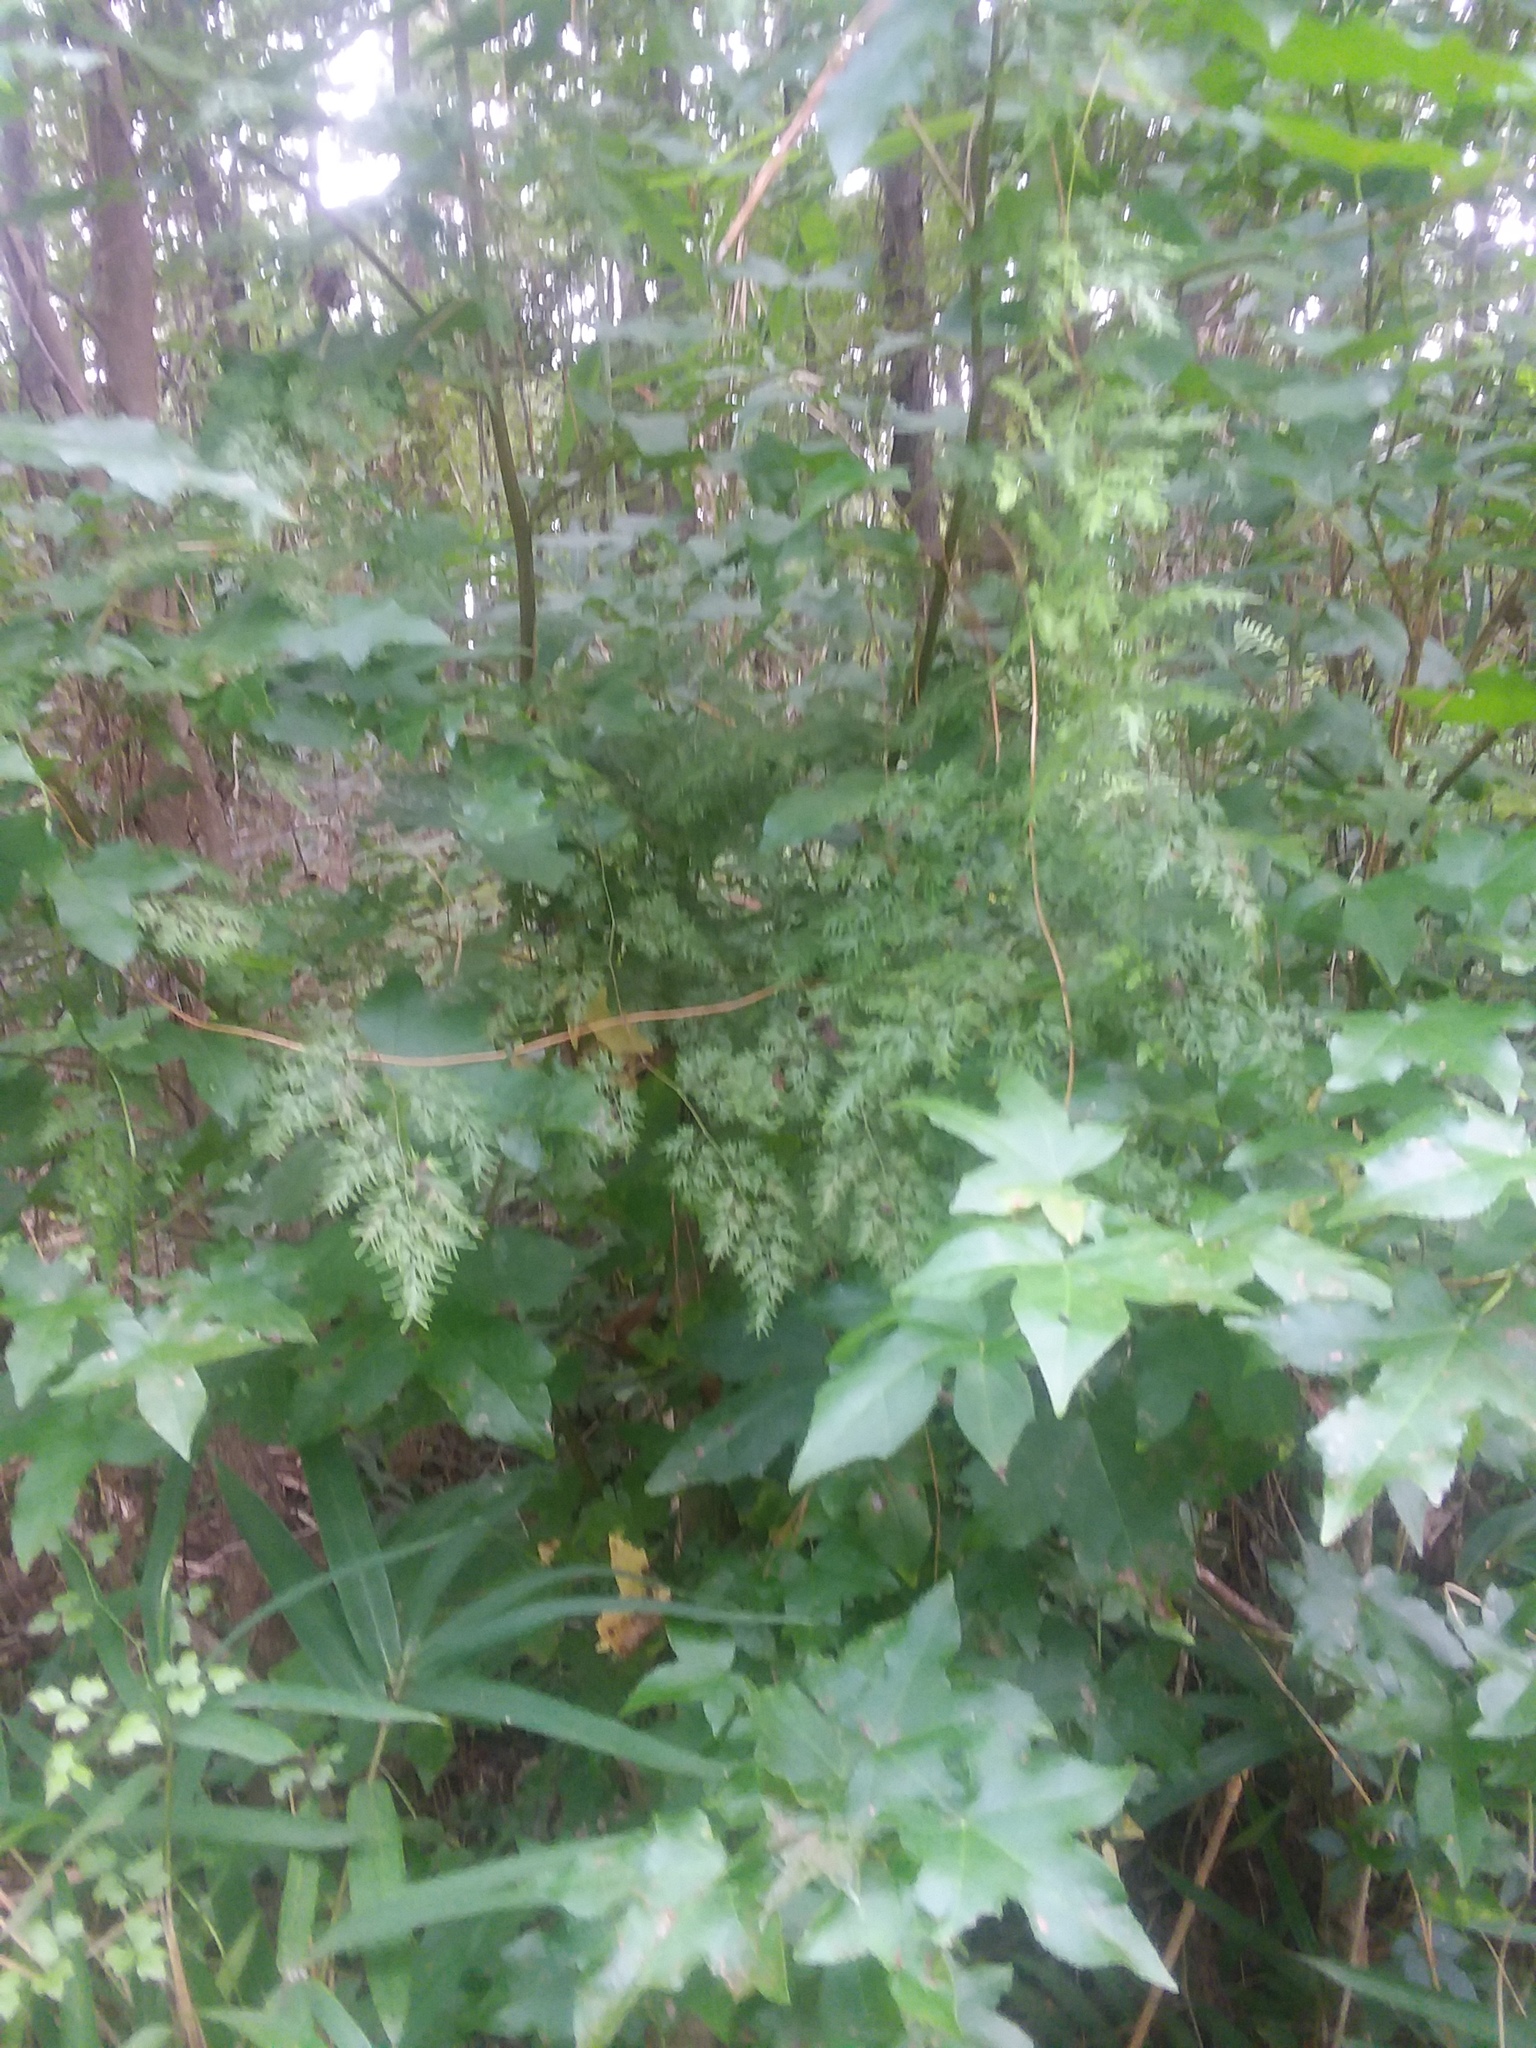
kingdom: Plantae
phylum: Tracheophyta
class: Polypodiopsida
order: Schizaeales
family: Lygodiaceae
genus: Lygodium
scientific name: Lygodium japonicum
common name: Japanese climbing fern
